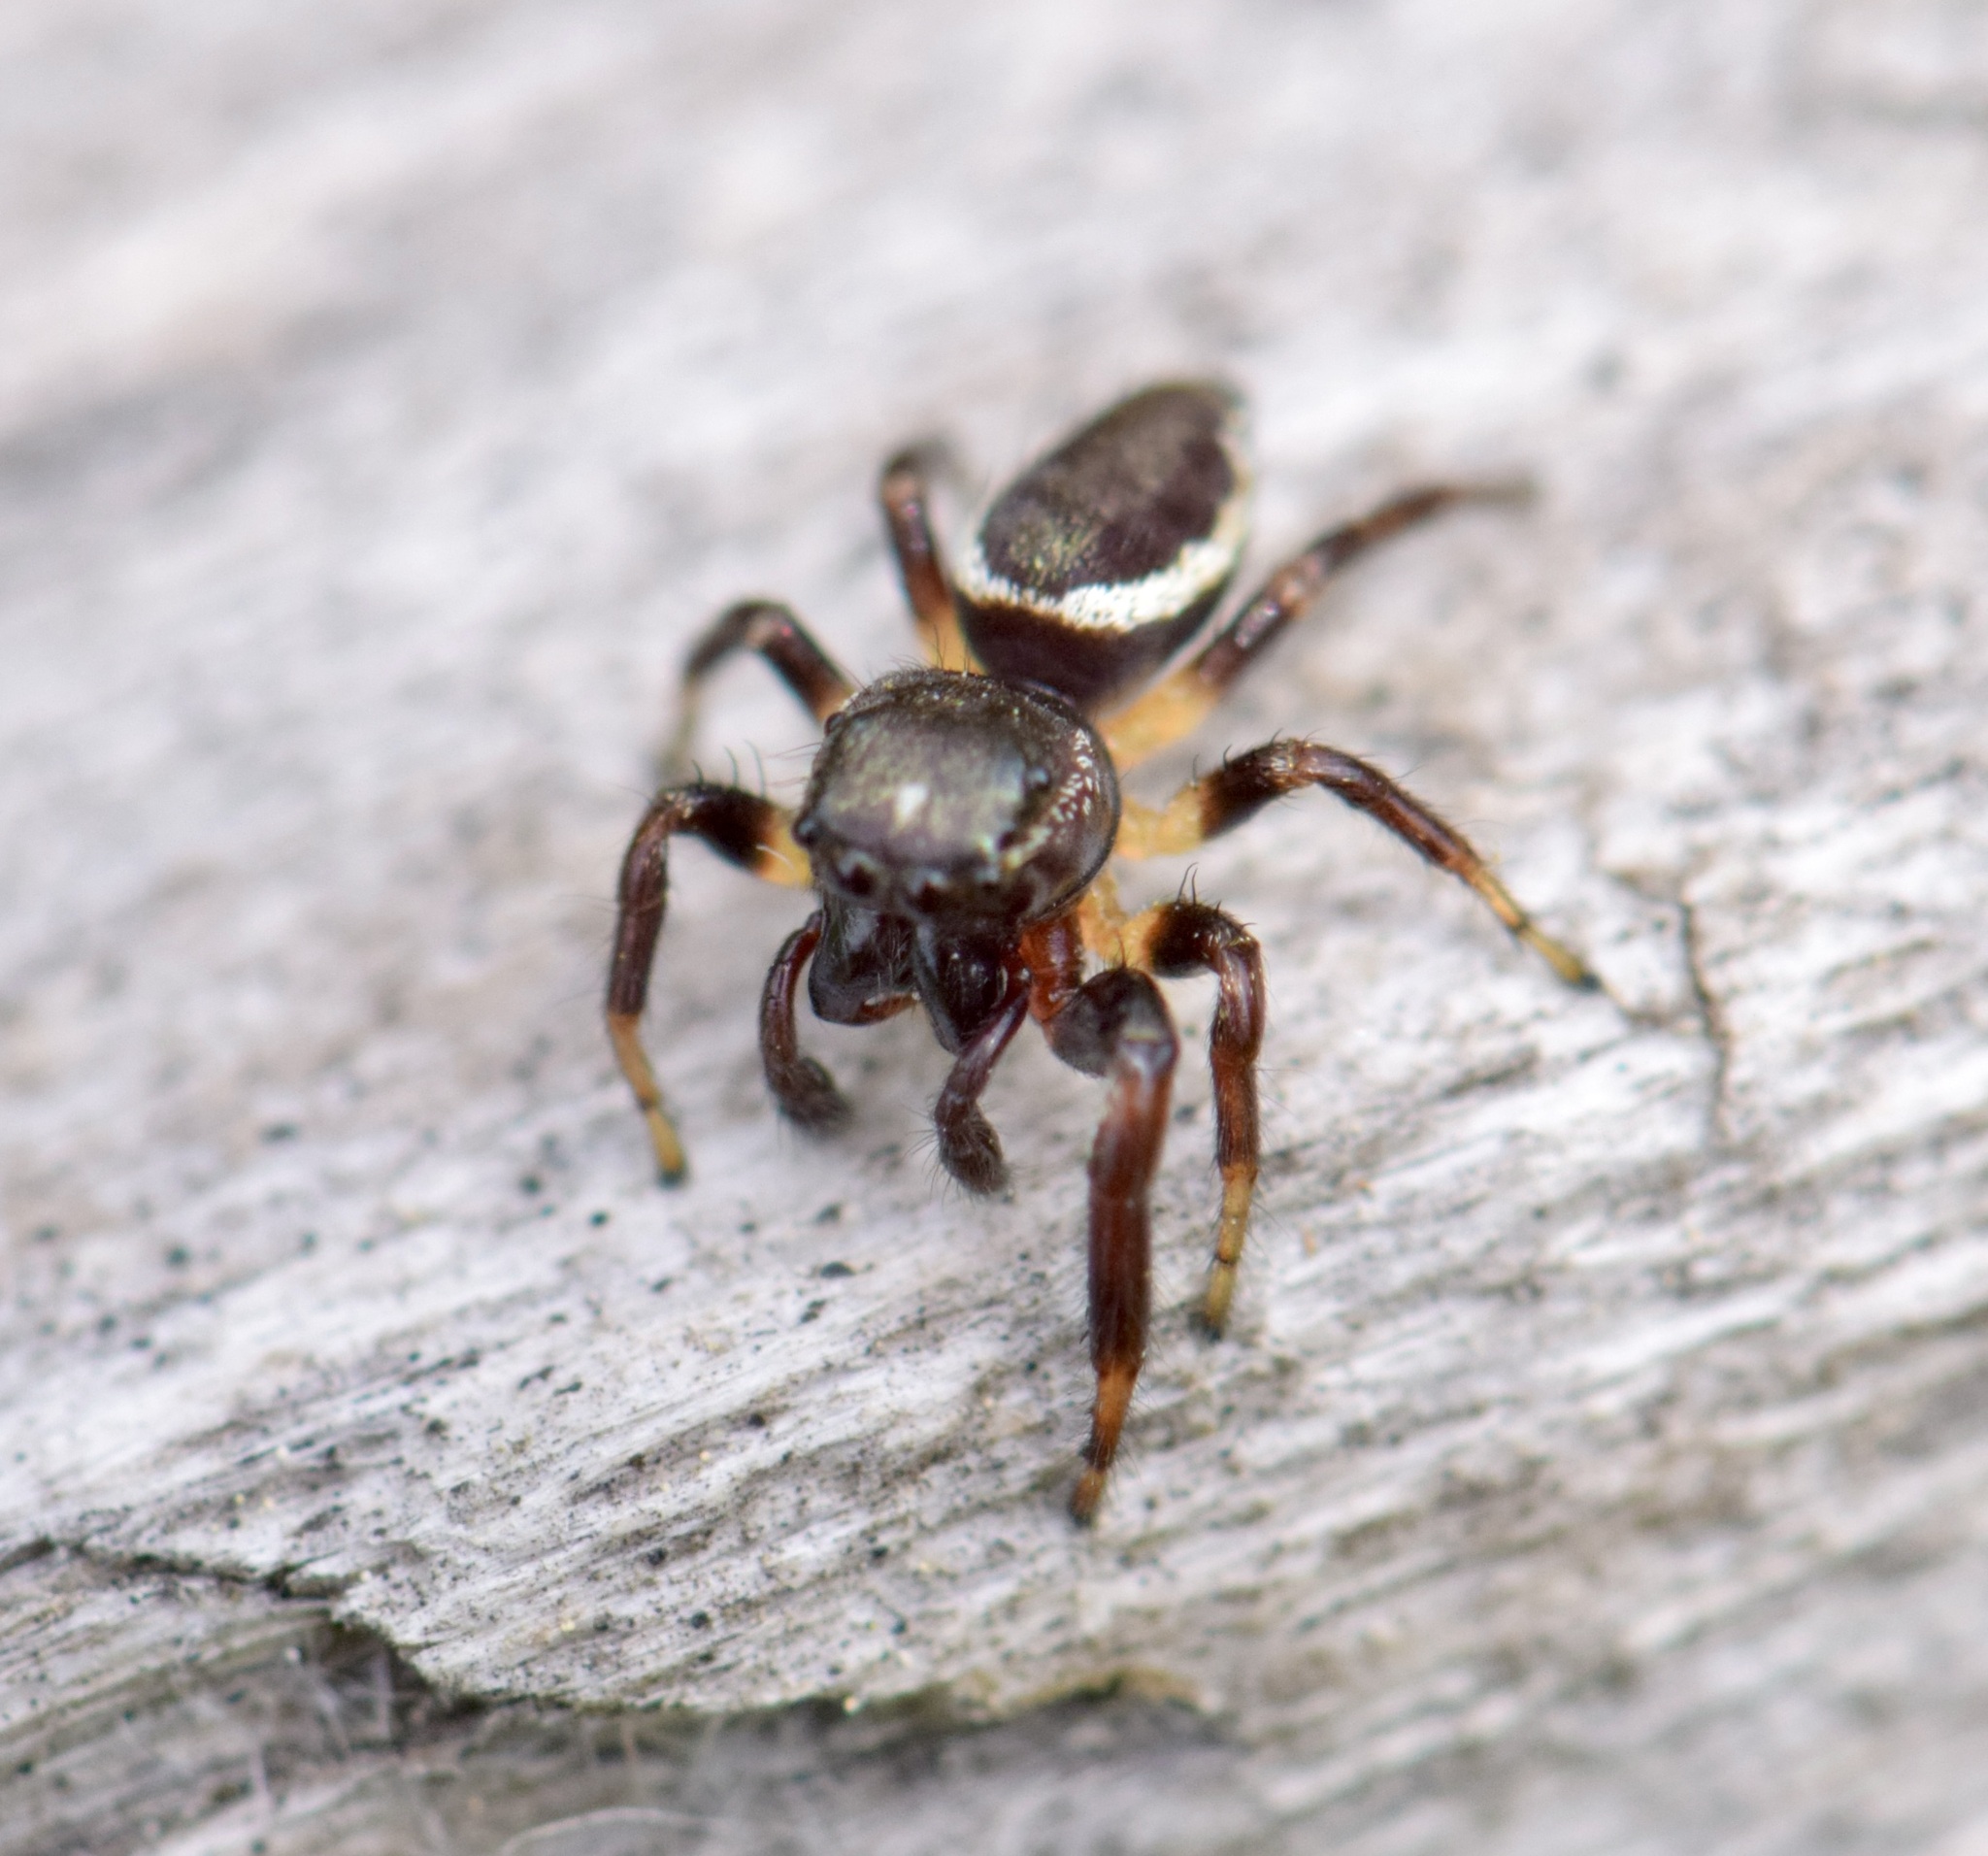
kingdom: Animalia
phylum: Arthropoda
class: Arachnida
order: Araneae
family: Salticidae
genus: Eris
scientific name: Eris militaris
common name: Bronze jumper
